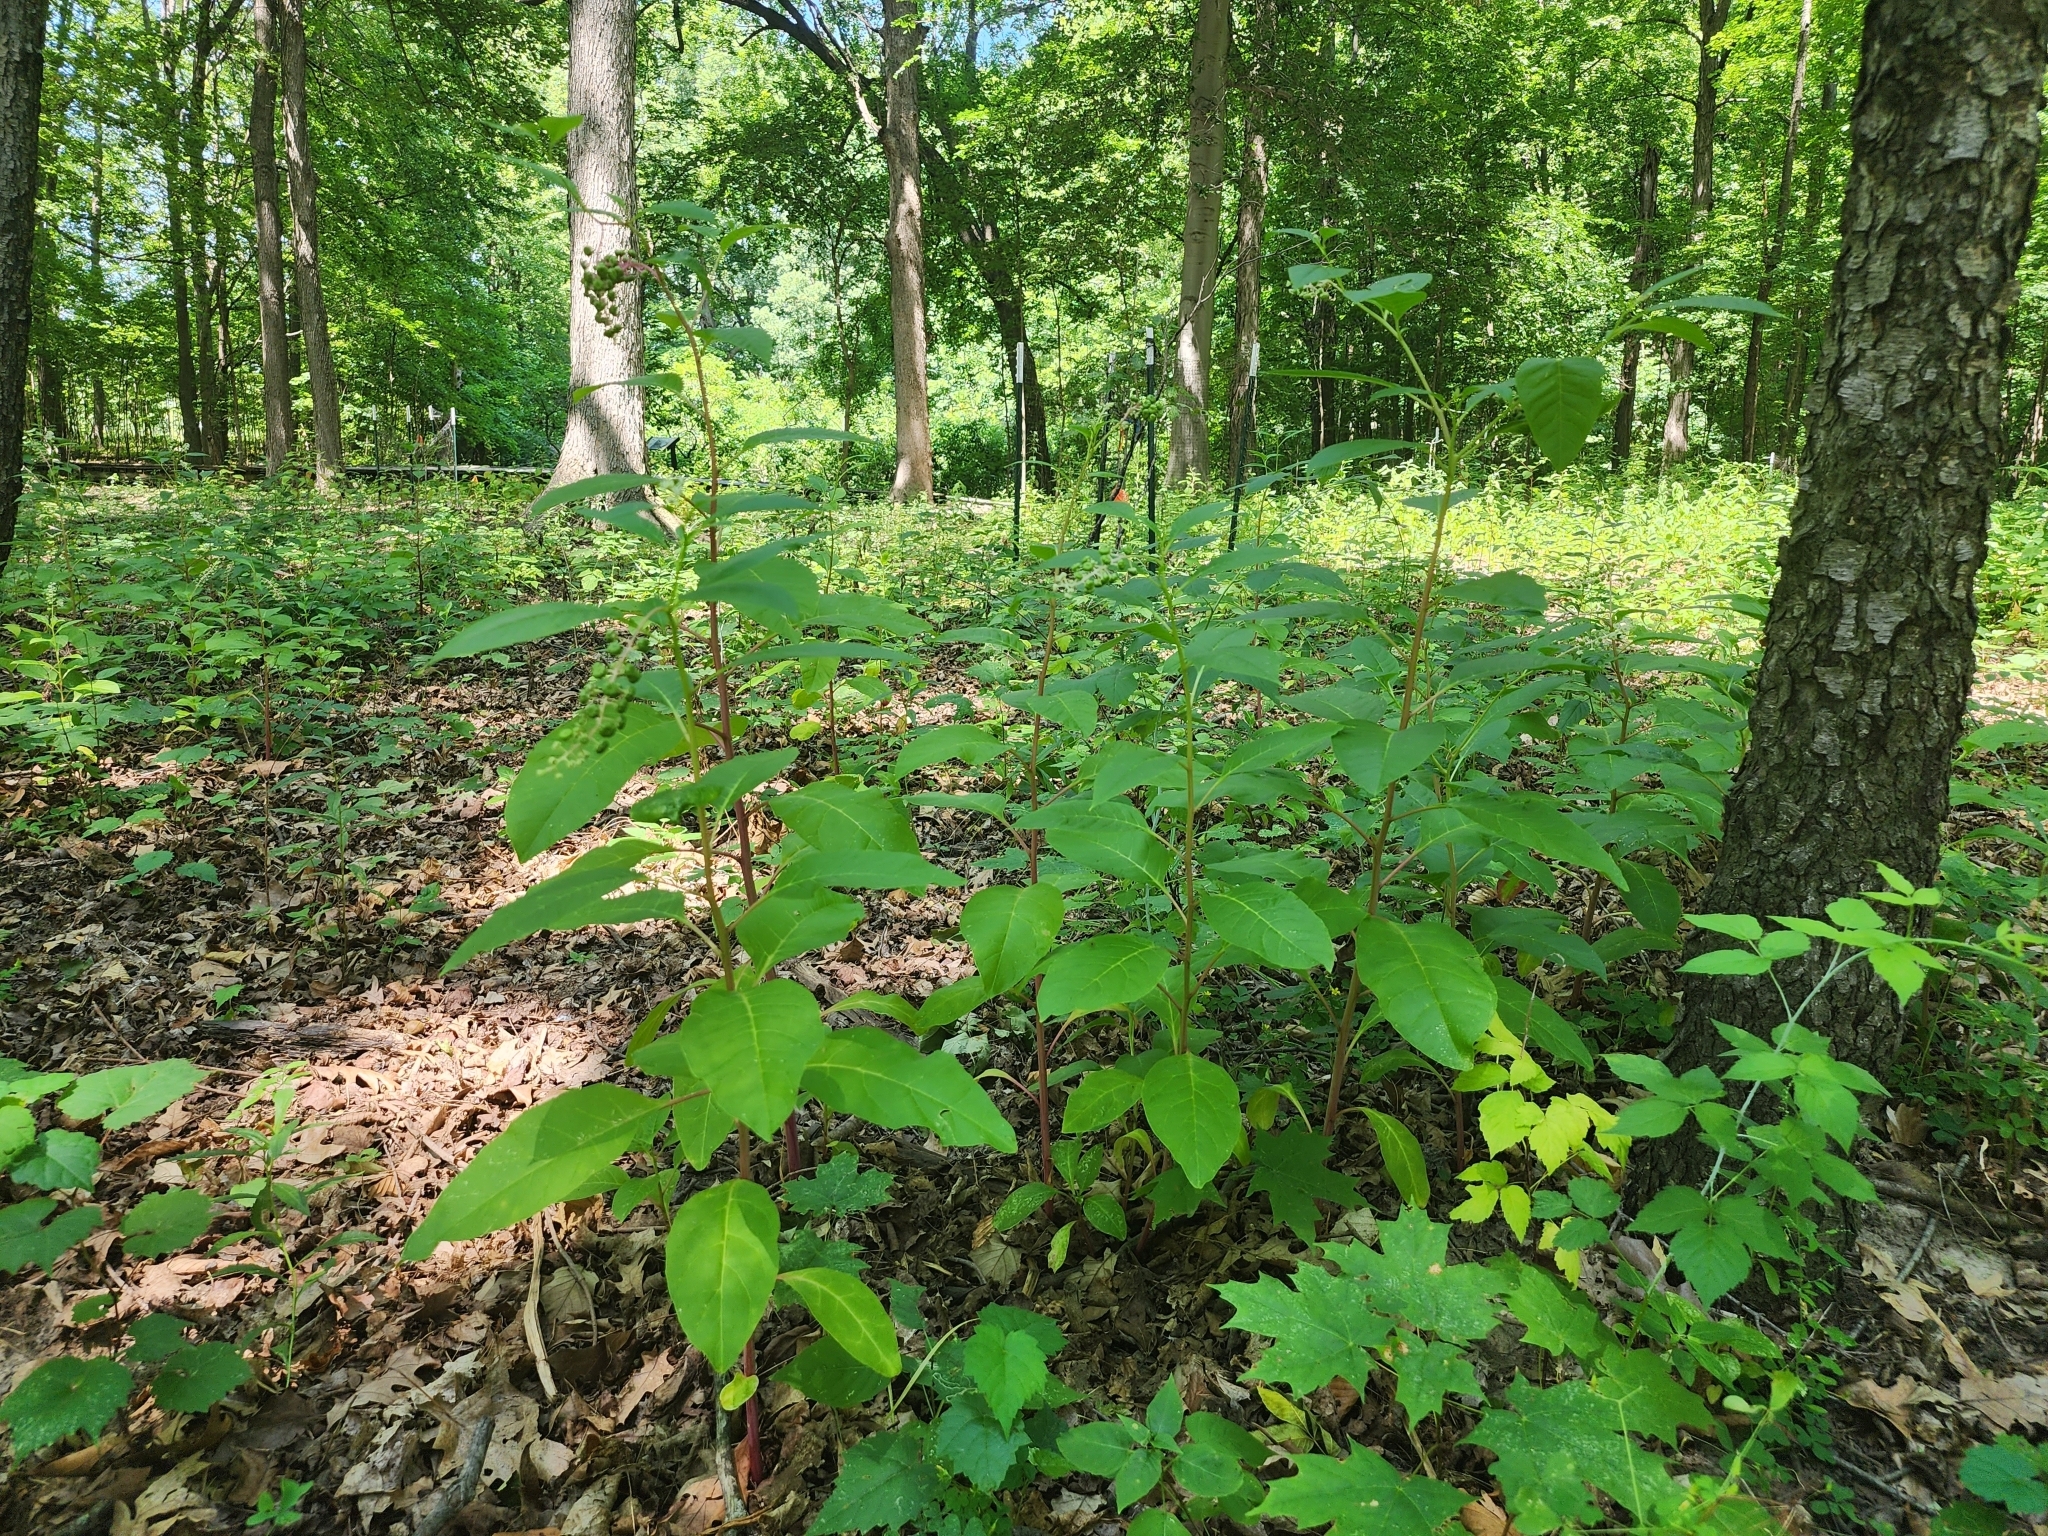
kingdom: Plantae
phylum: Tracheophyta
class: Magnoliopsida
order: Caryophyllales
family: Phytolaccaceae
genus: Phytolacca
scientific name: Phytolacca americana
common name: American pokeweed
